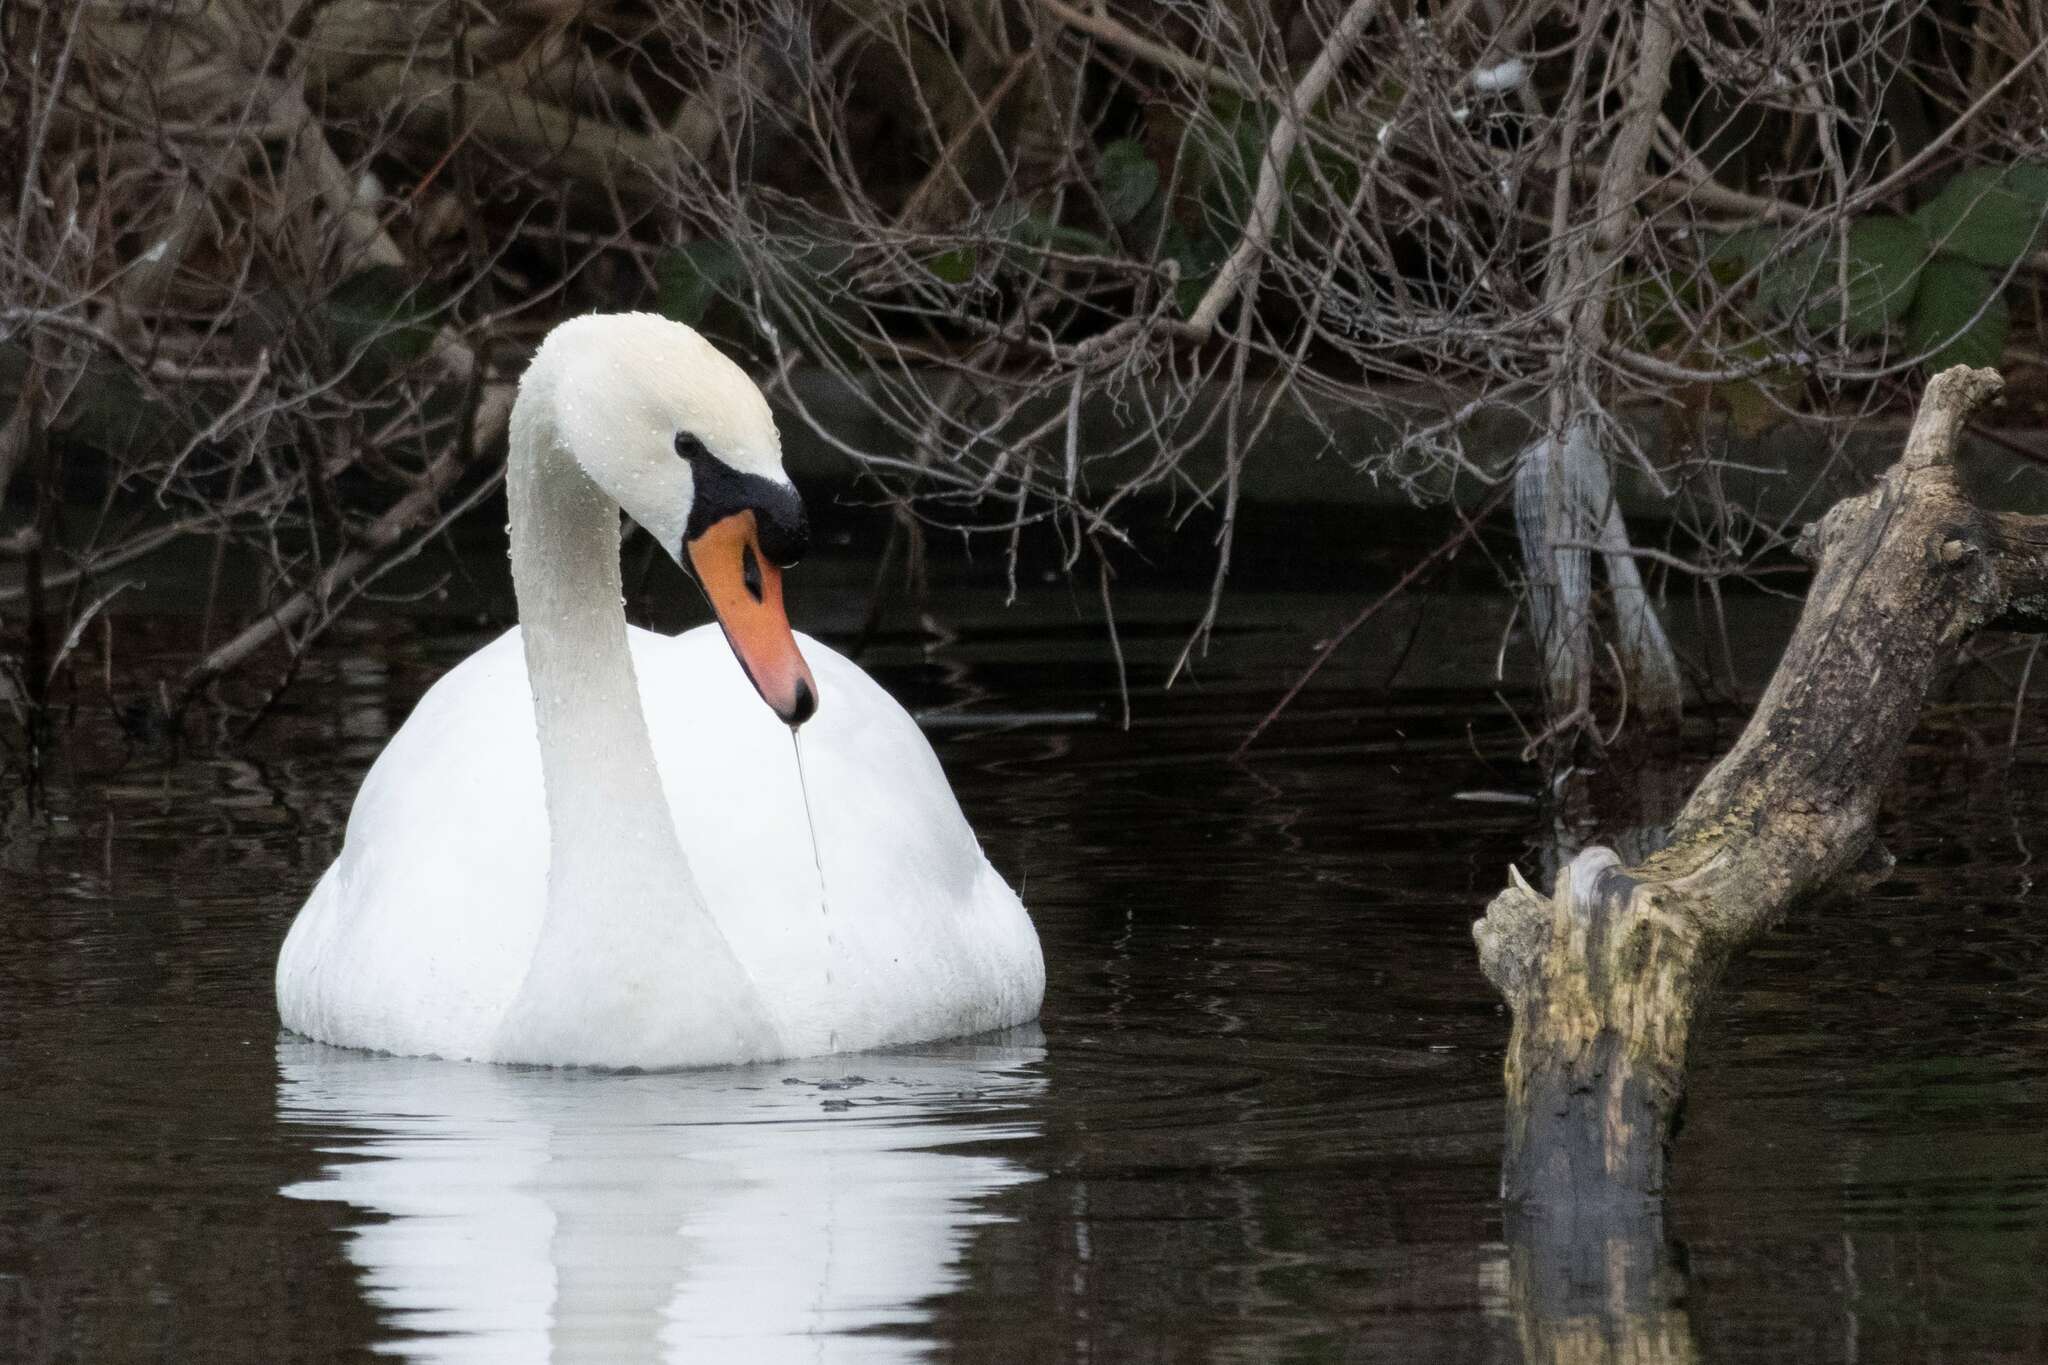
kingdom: Animalia
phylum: Chordata
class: Aves
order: Anseriformes
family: Anatidae
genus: Cygnus
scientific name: Cygnus olor
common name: Mute swan
